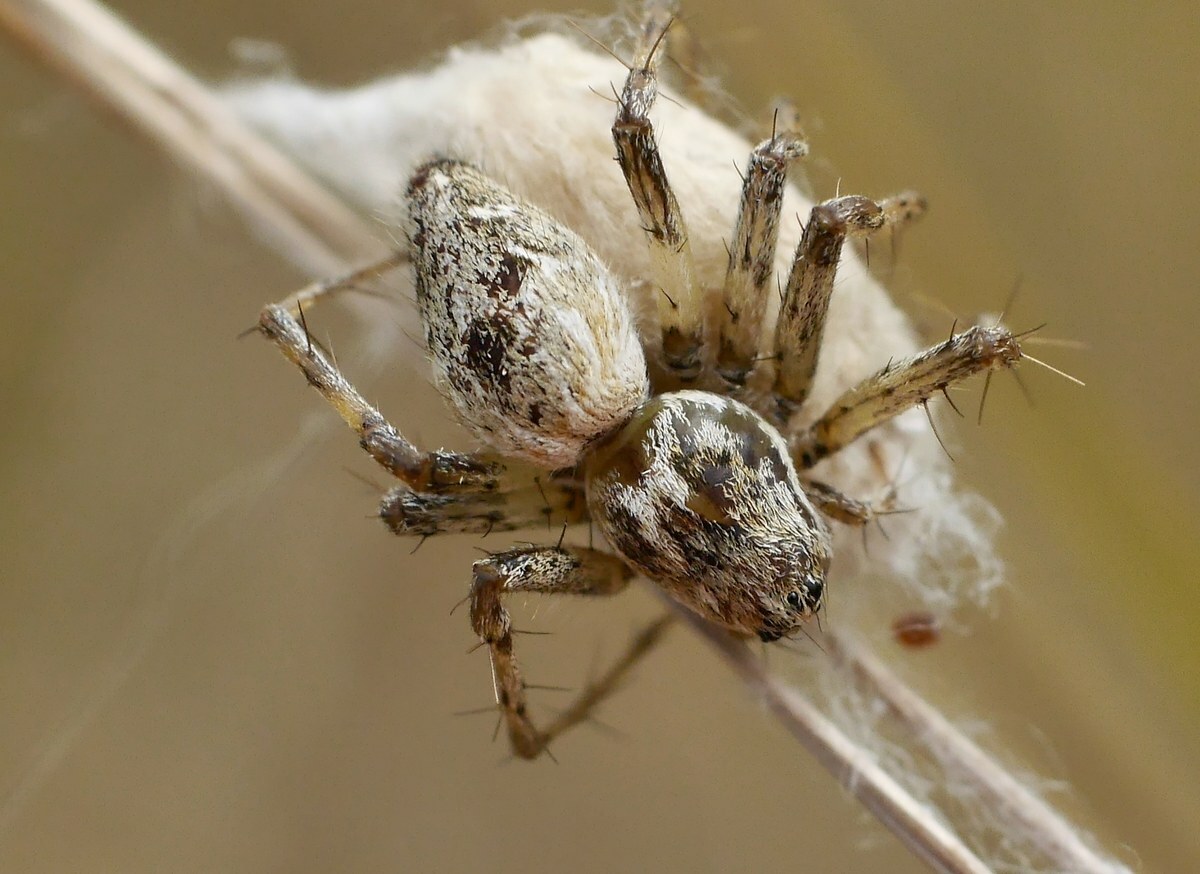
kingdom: Animalia
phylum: Arthropoda
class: Arachnida
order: Araneae
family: Oxyopidae
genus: Oxyopes
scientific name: Oxyopes heterophthalmus
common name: Lynx spider
